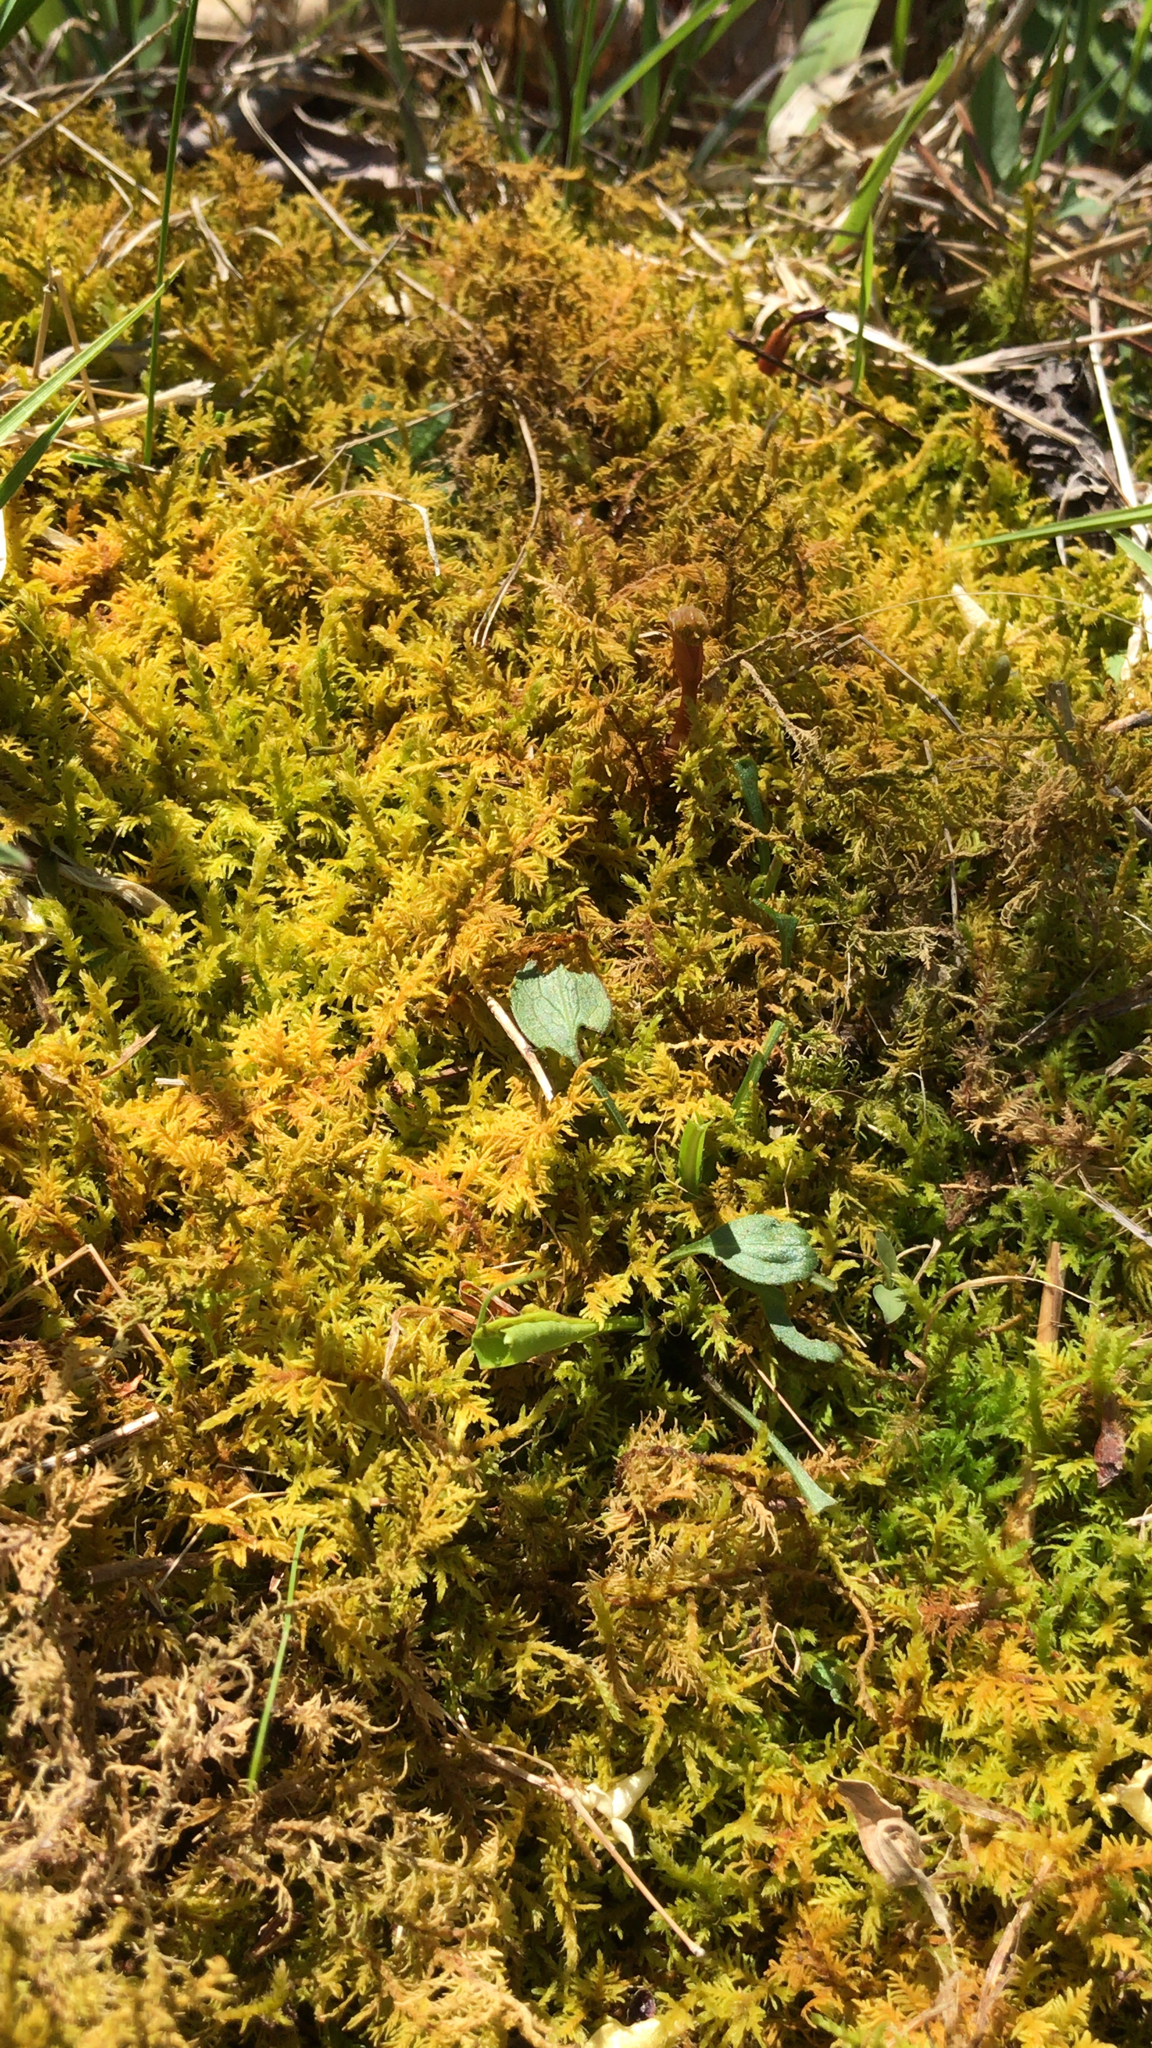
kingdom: Plantae
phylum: Bryophyta
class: Bryopsida
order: Hypnales
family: Thuidiaceae
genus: Thuidium
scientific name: Thuidium delicatulum
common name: Delicate fern moss
